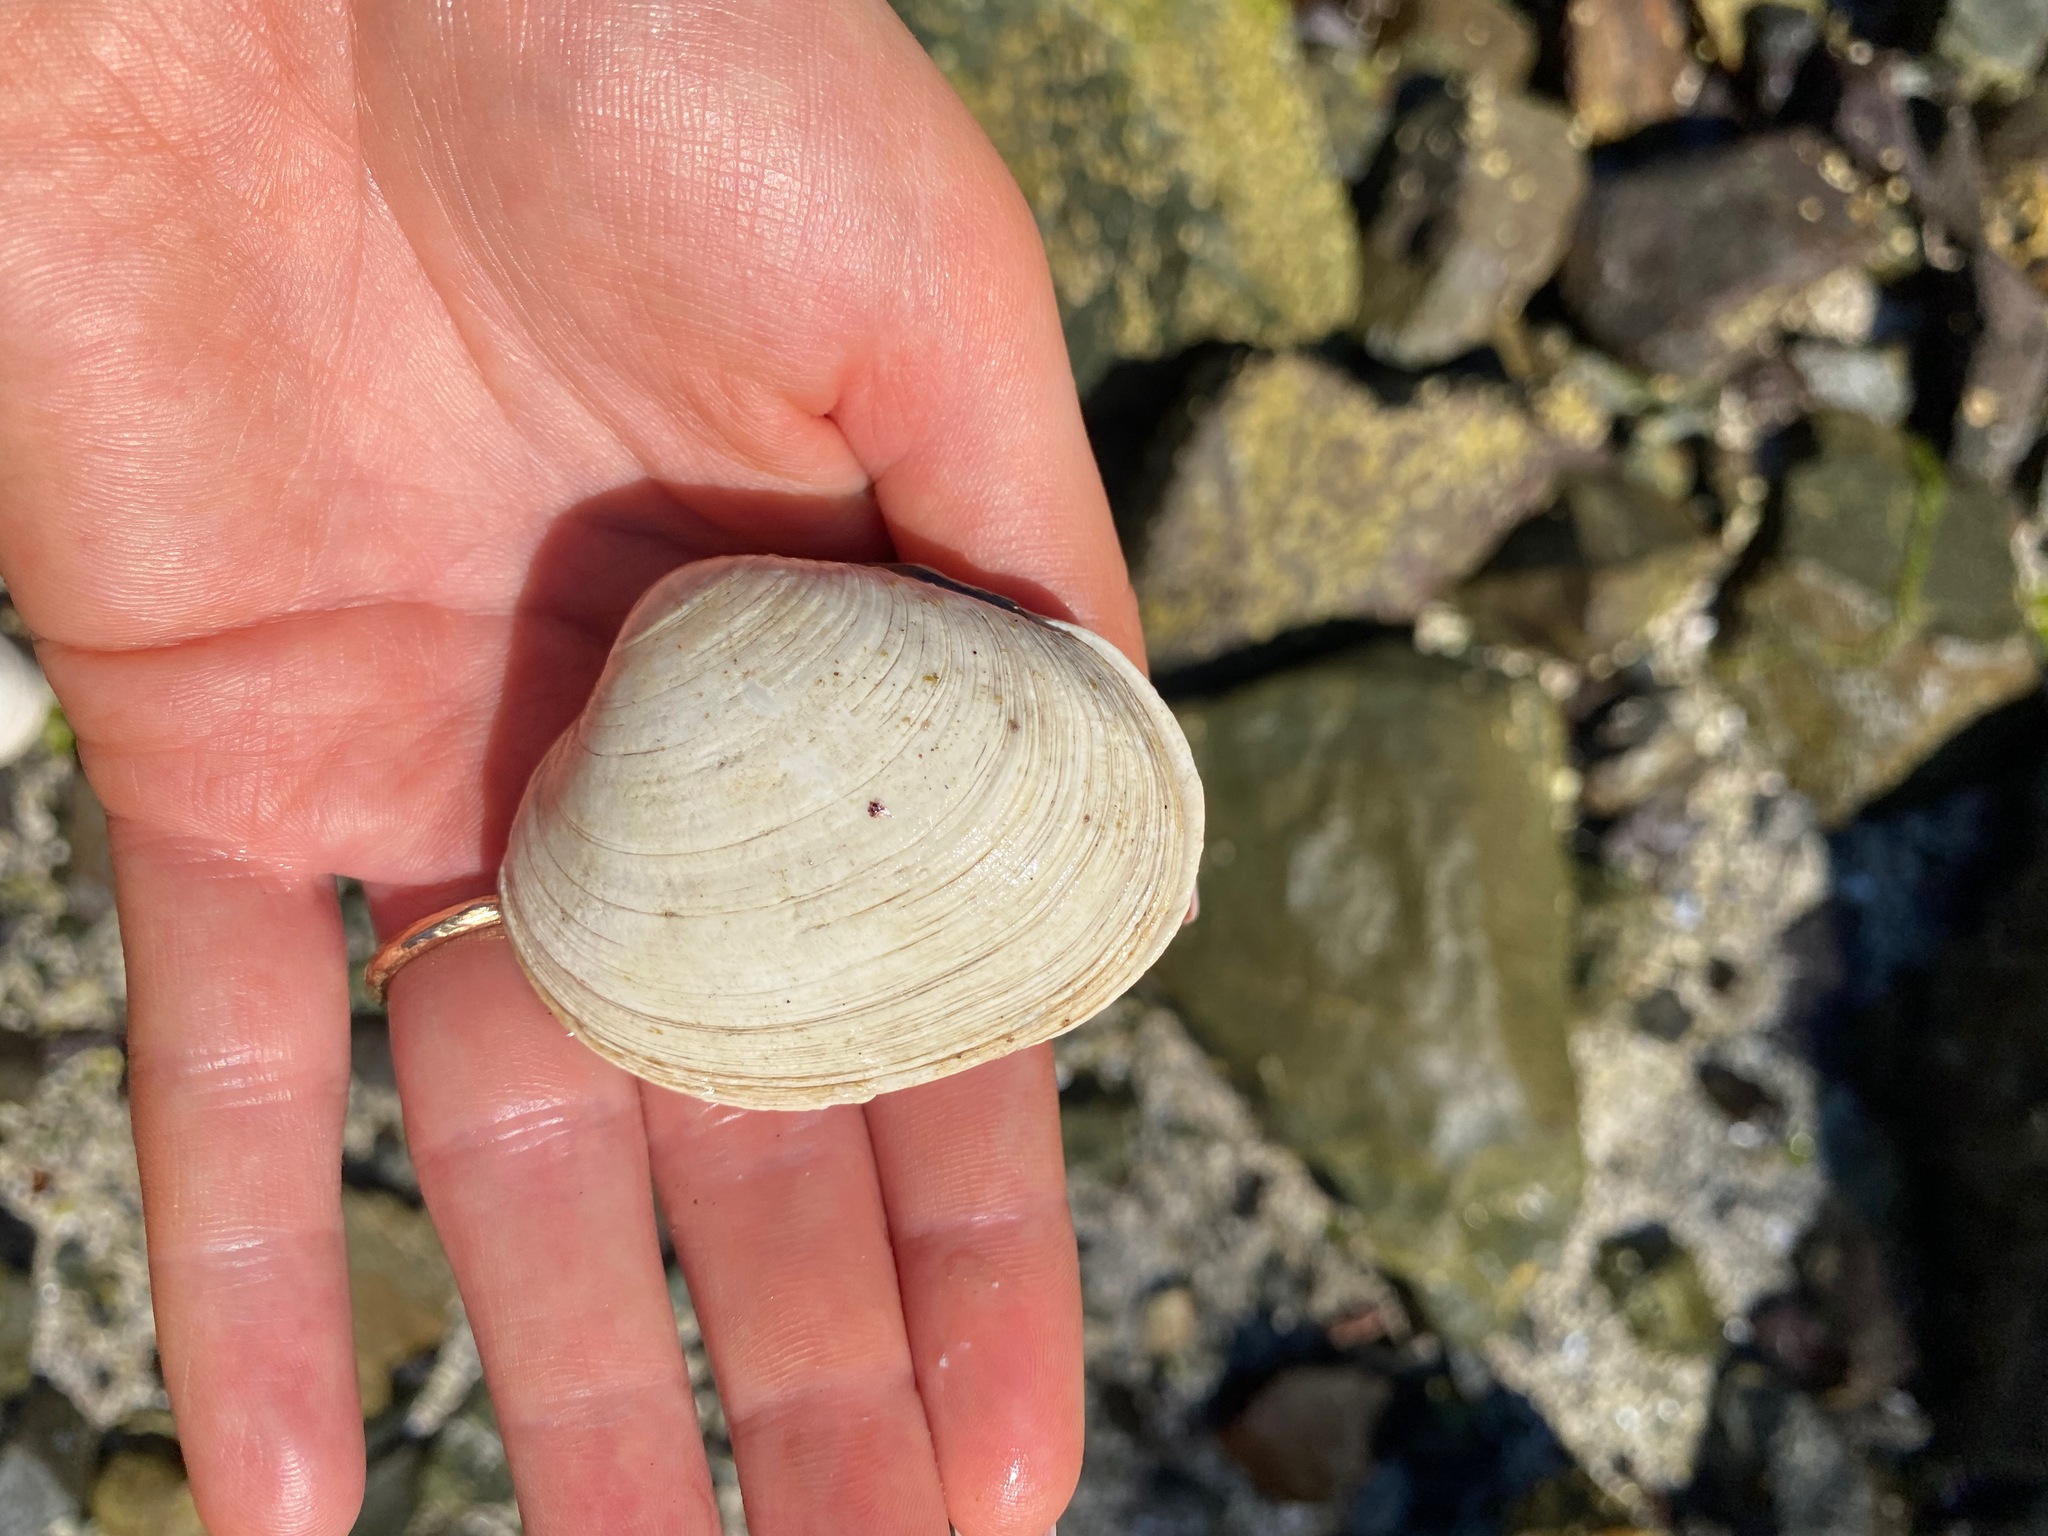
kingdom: Animalia
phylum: Mollusca
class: Bivalvia
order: Venerida
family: Veneridae
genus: Saxidomus
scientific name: Saxidomus gigantea
